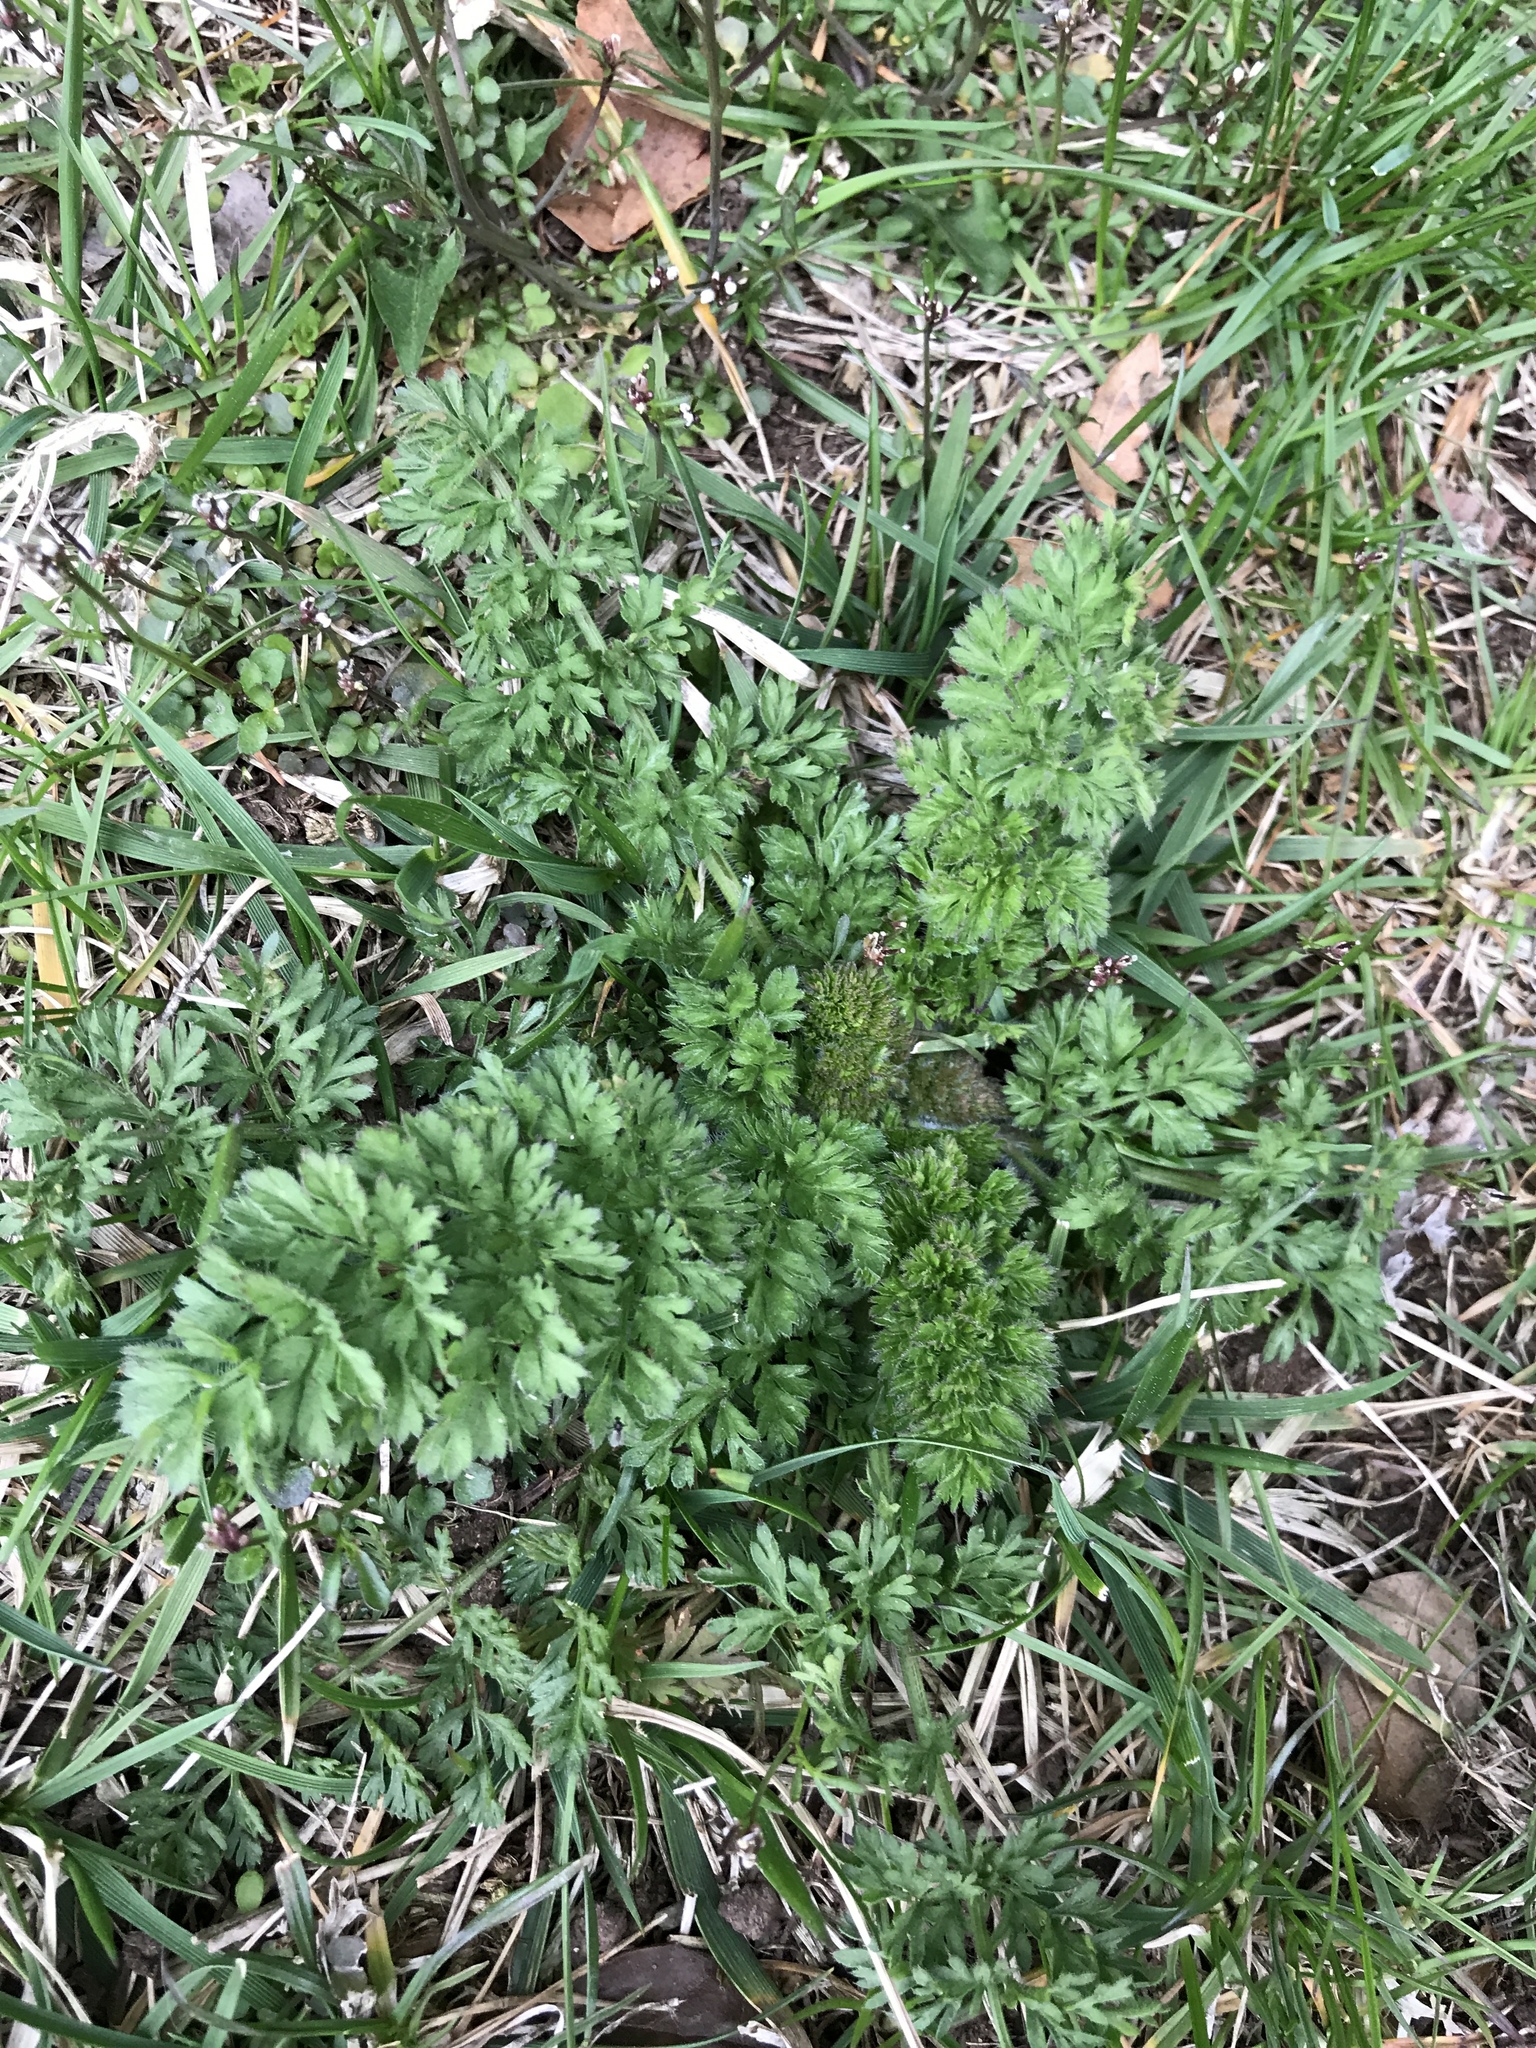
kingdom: Plantae
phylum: Tracheophyta
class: Magnoliopsida
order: Apiales
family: Apiaceae
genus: Daucus
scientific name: Daucus carota
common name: Wild carrot
